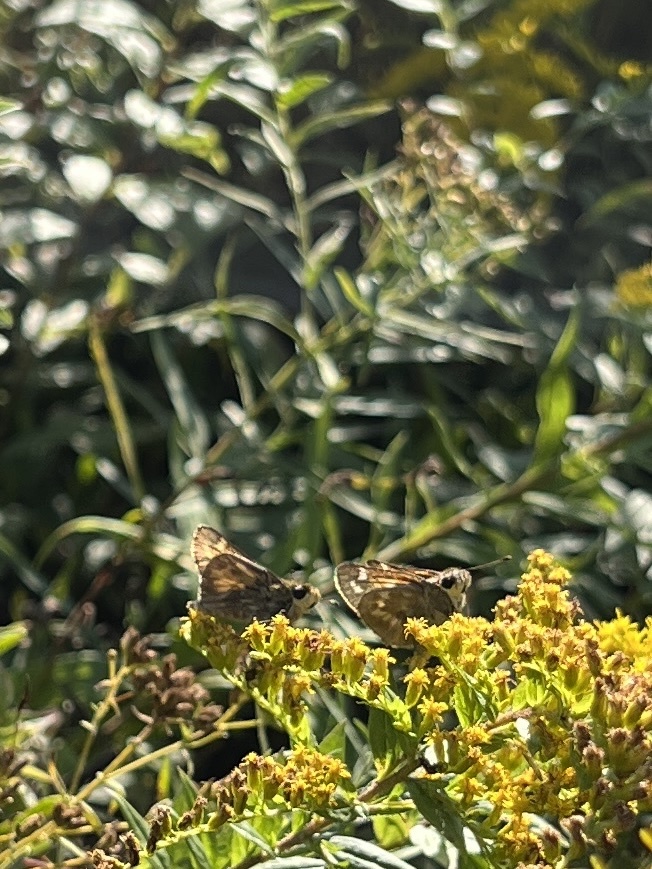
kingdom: Animalia
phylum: Arthropoda
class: Insecta
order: Lepidoptera
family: Hesperiidae
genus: Atalopedes
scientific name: Atalopedes
